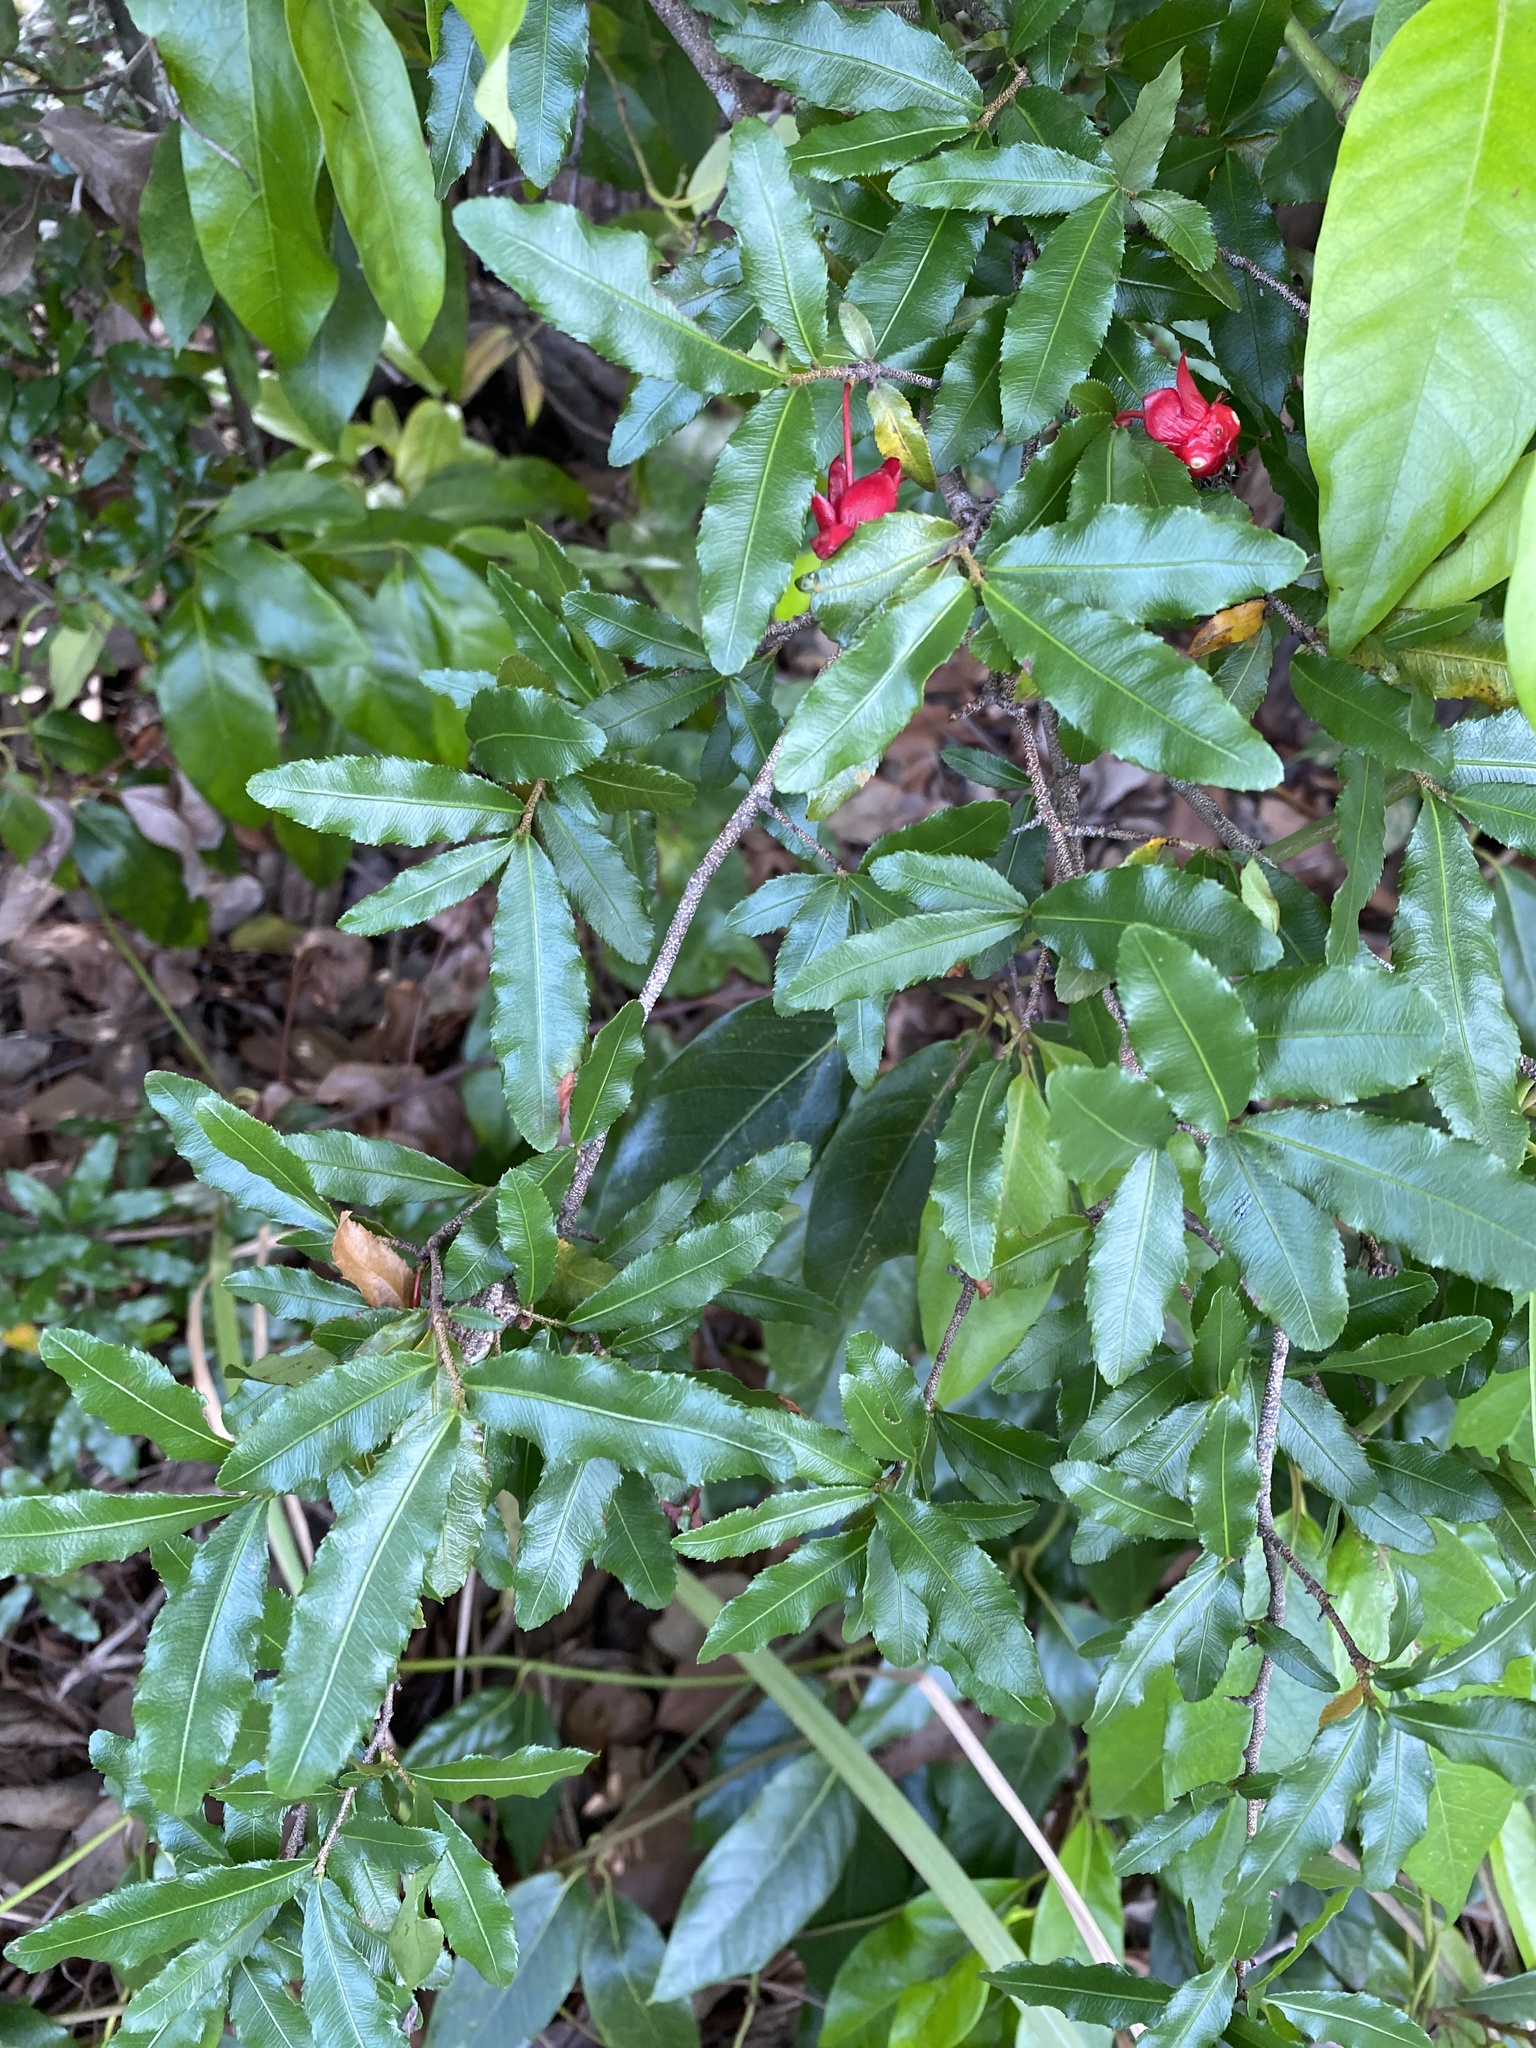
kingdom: Plantae
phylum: Tracheophyta
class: Magnoliopsida
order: Malpighiales
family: Ochnaceae
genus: Ochna
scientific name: Ochna serrulata
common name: Mickey mouse plant
